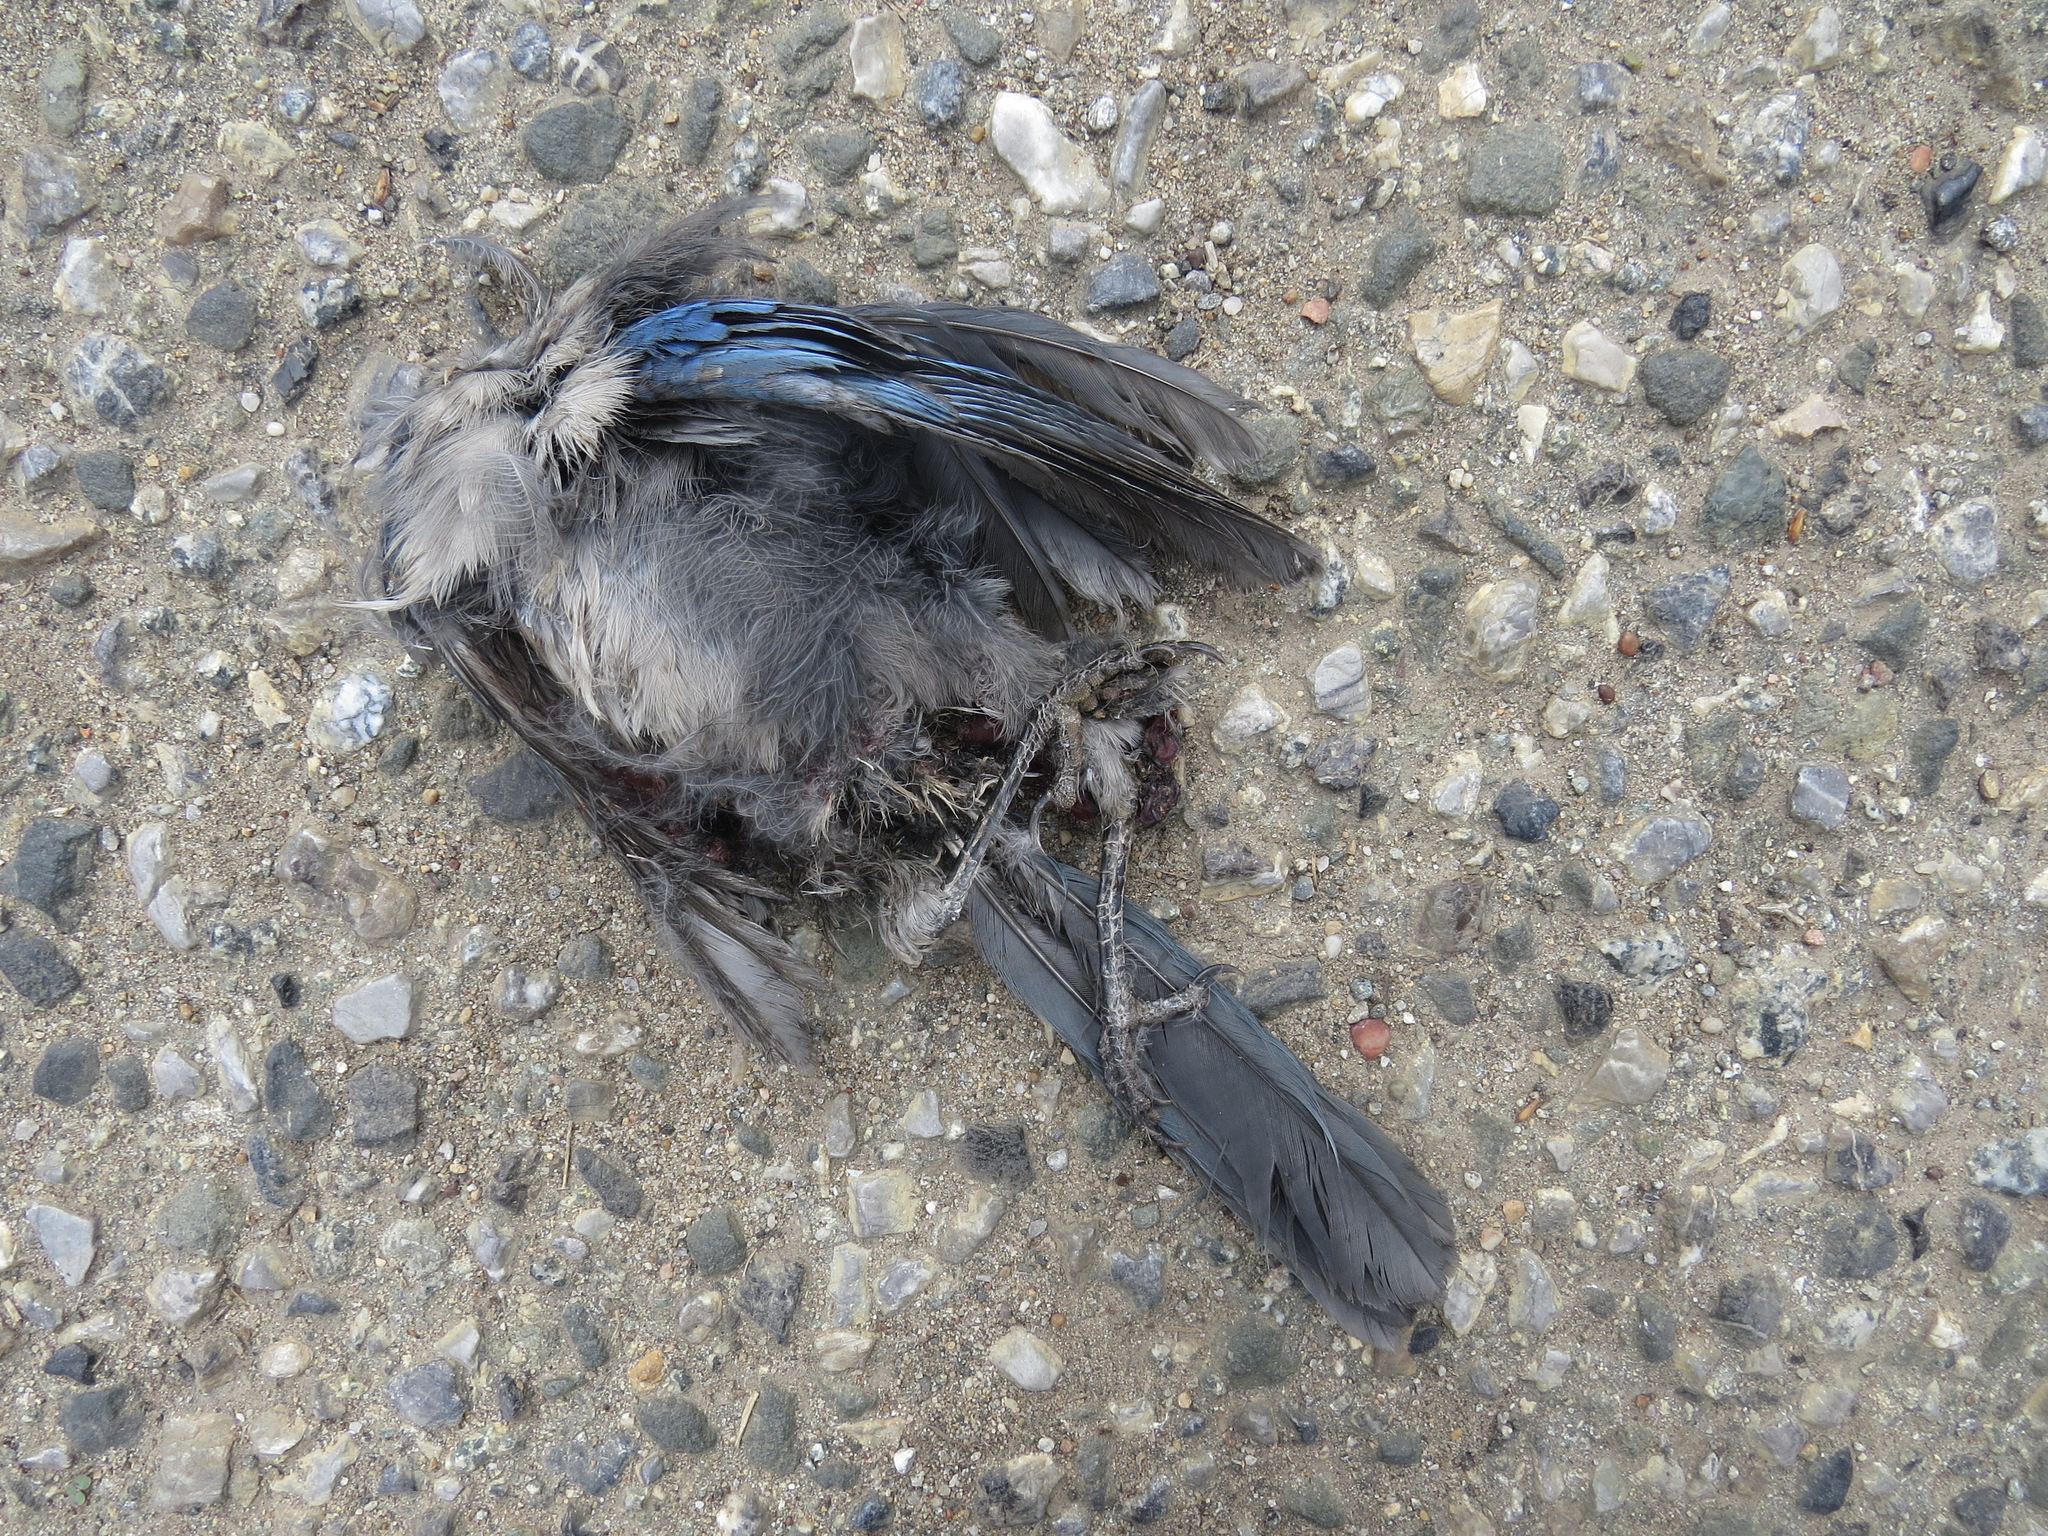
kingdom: Animalia
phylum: Chordata
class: Aves
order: Passeriformes
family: Corvidae
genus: Aphelocoma
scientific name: Aphelocoma californica
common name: California scrub-jay
